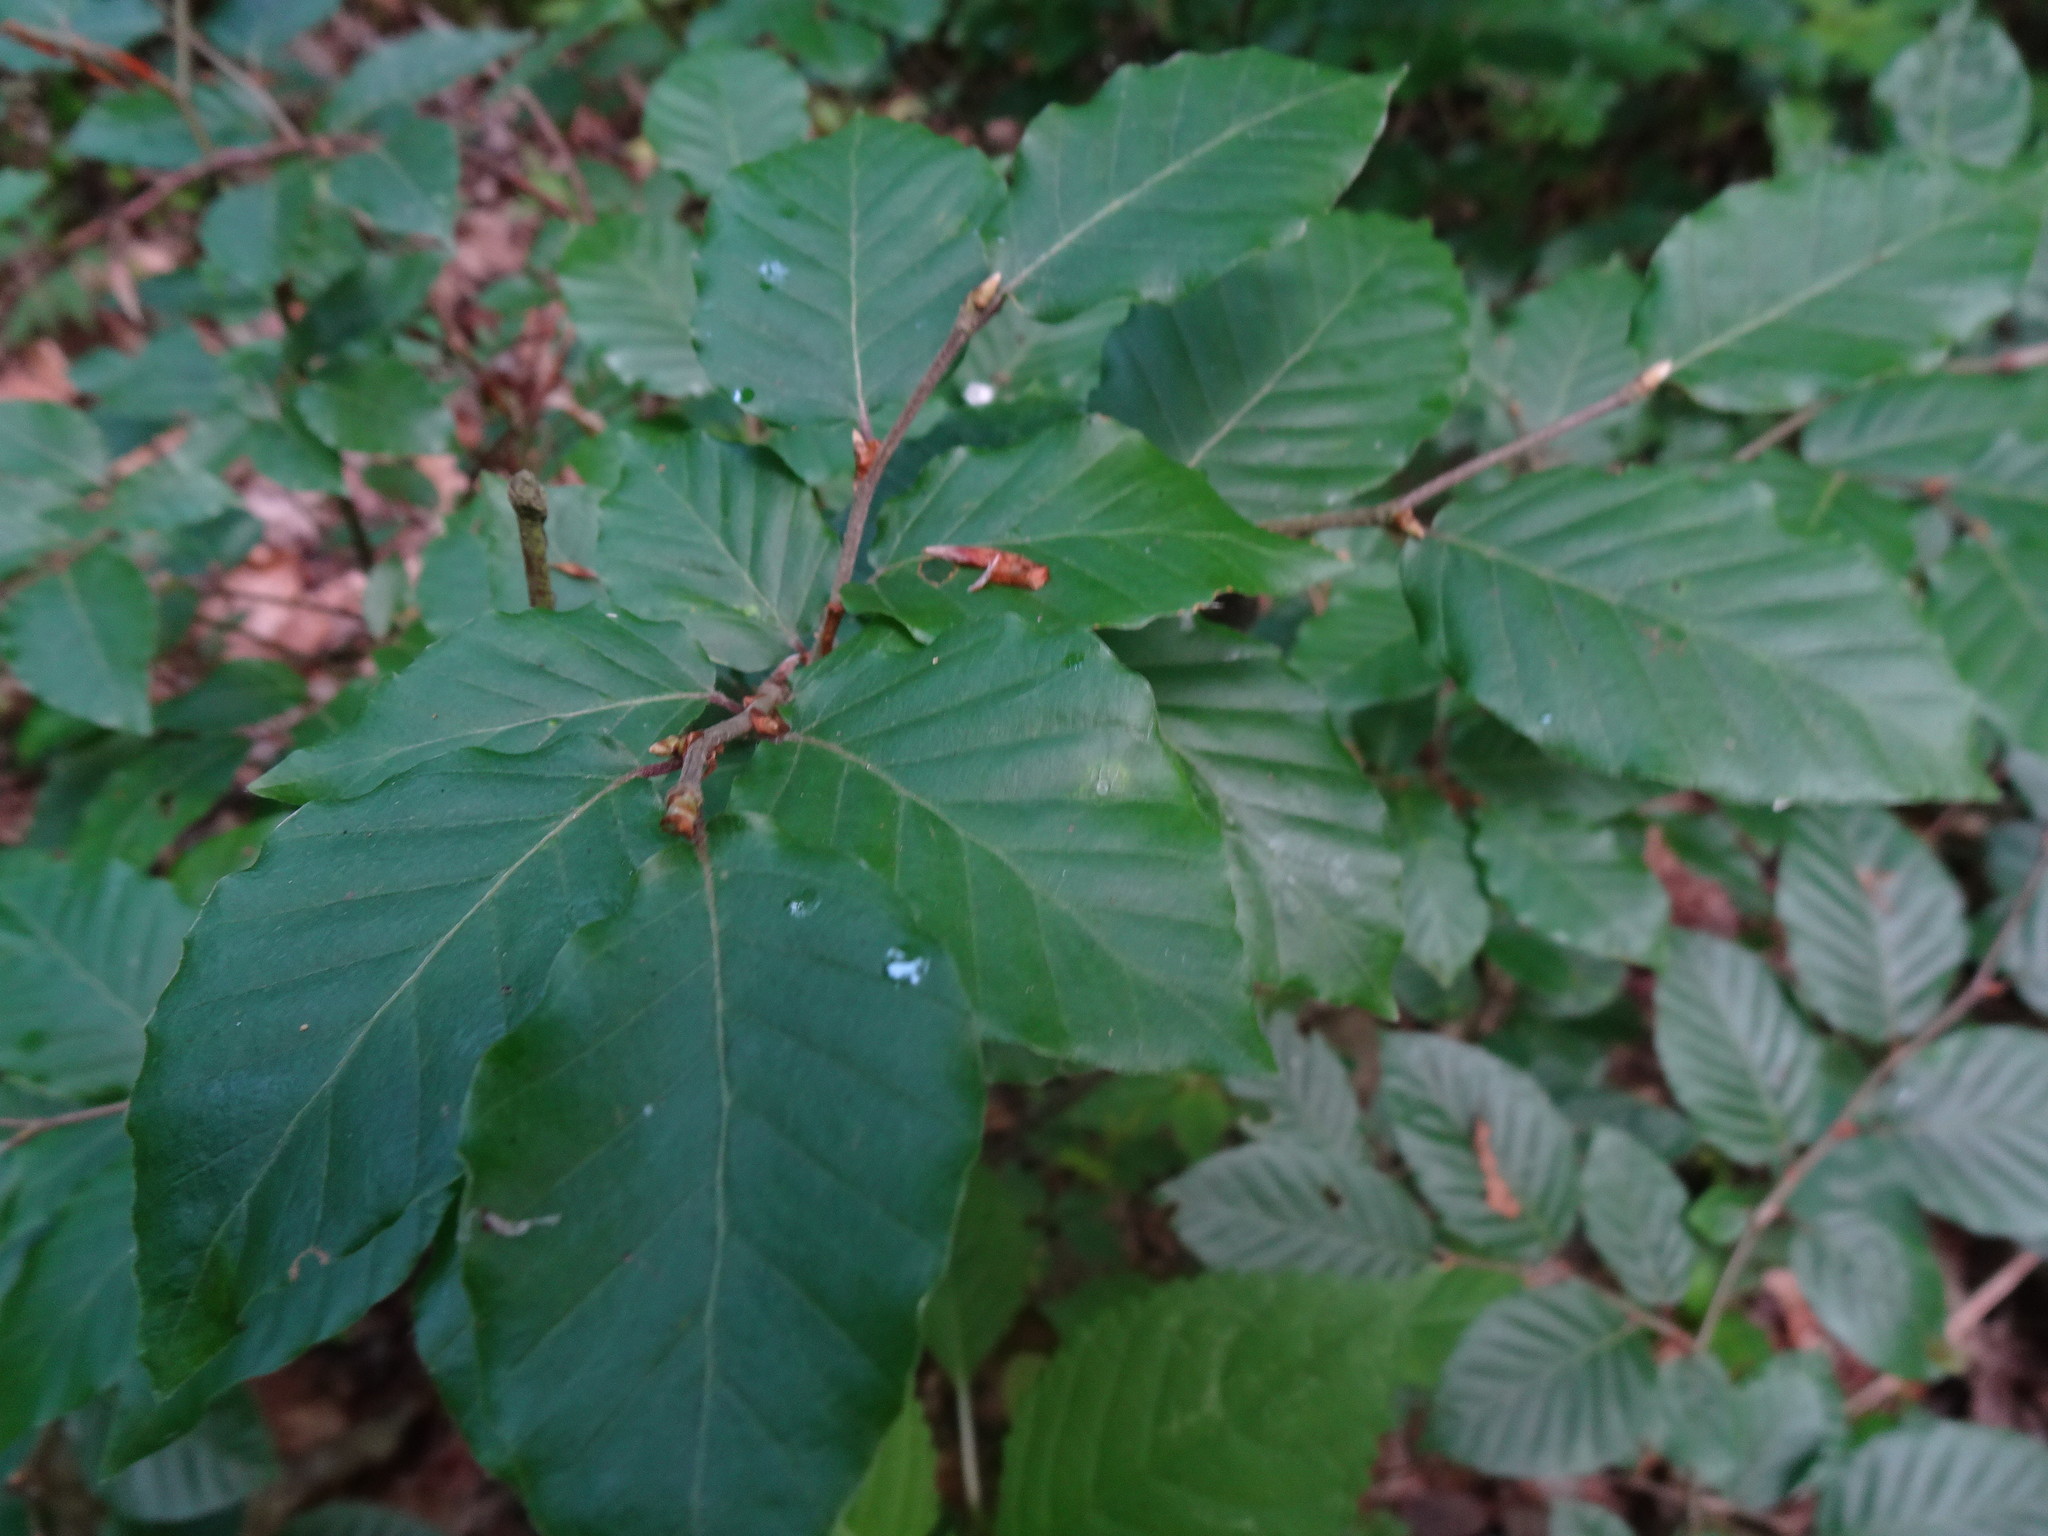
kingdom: Plantae
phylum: Tracheophyta
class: Magnoliopsida
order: Fagales
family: Fagaceae
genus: Fagus
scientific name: Fagus sylvatica
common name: Beech
